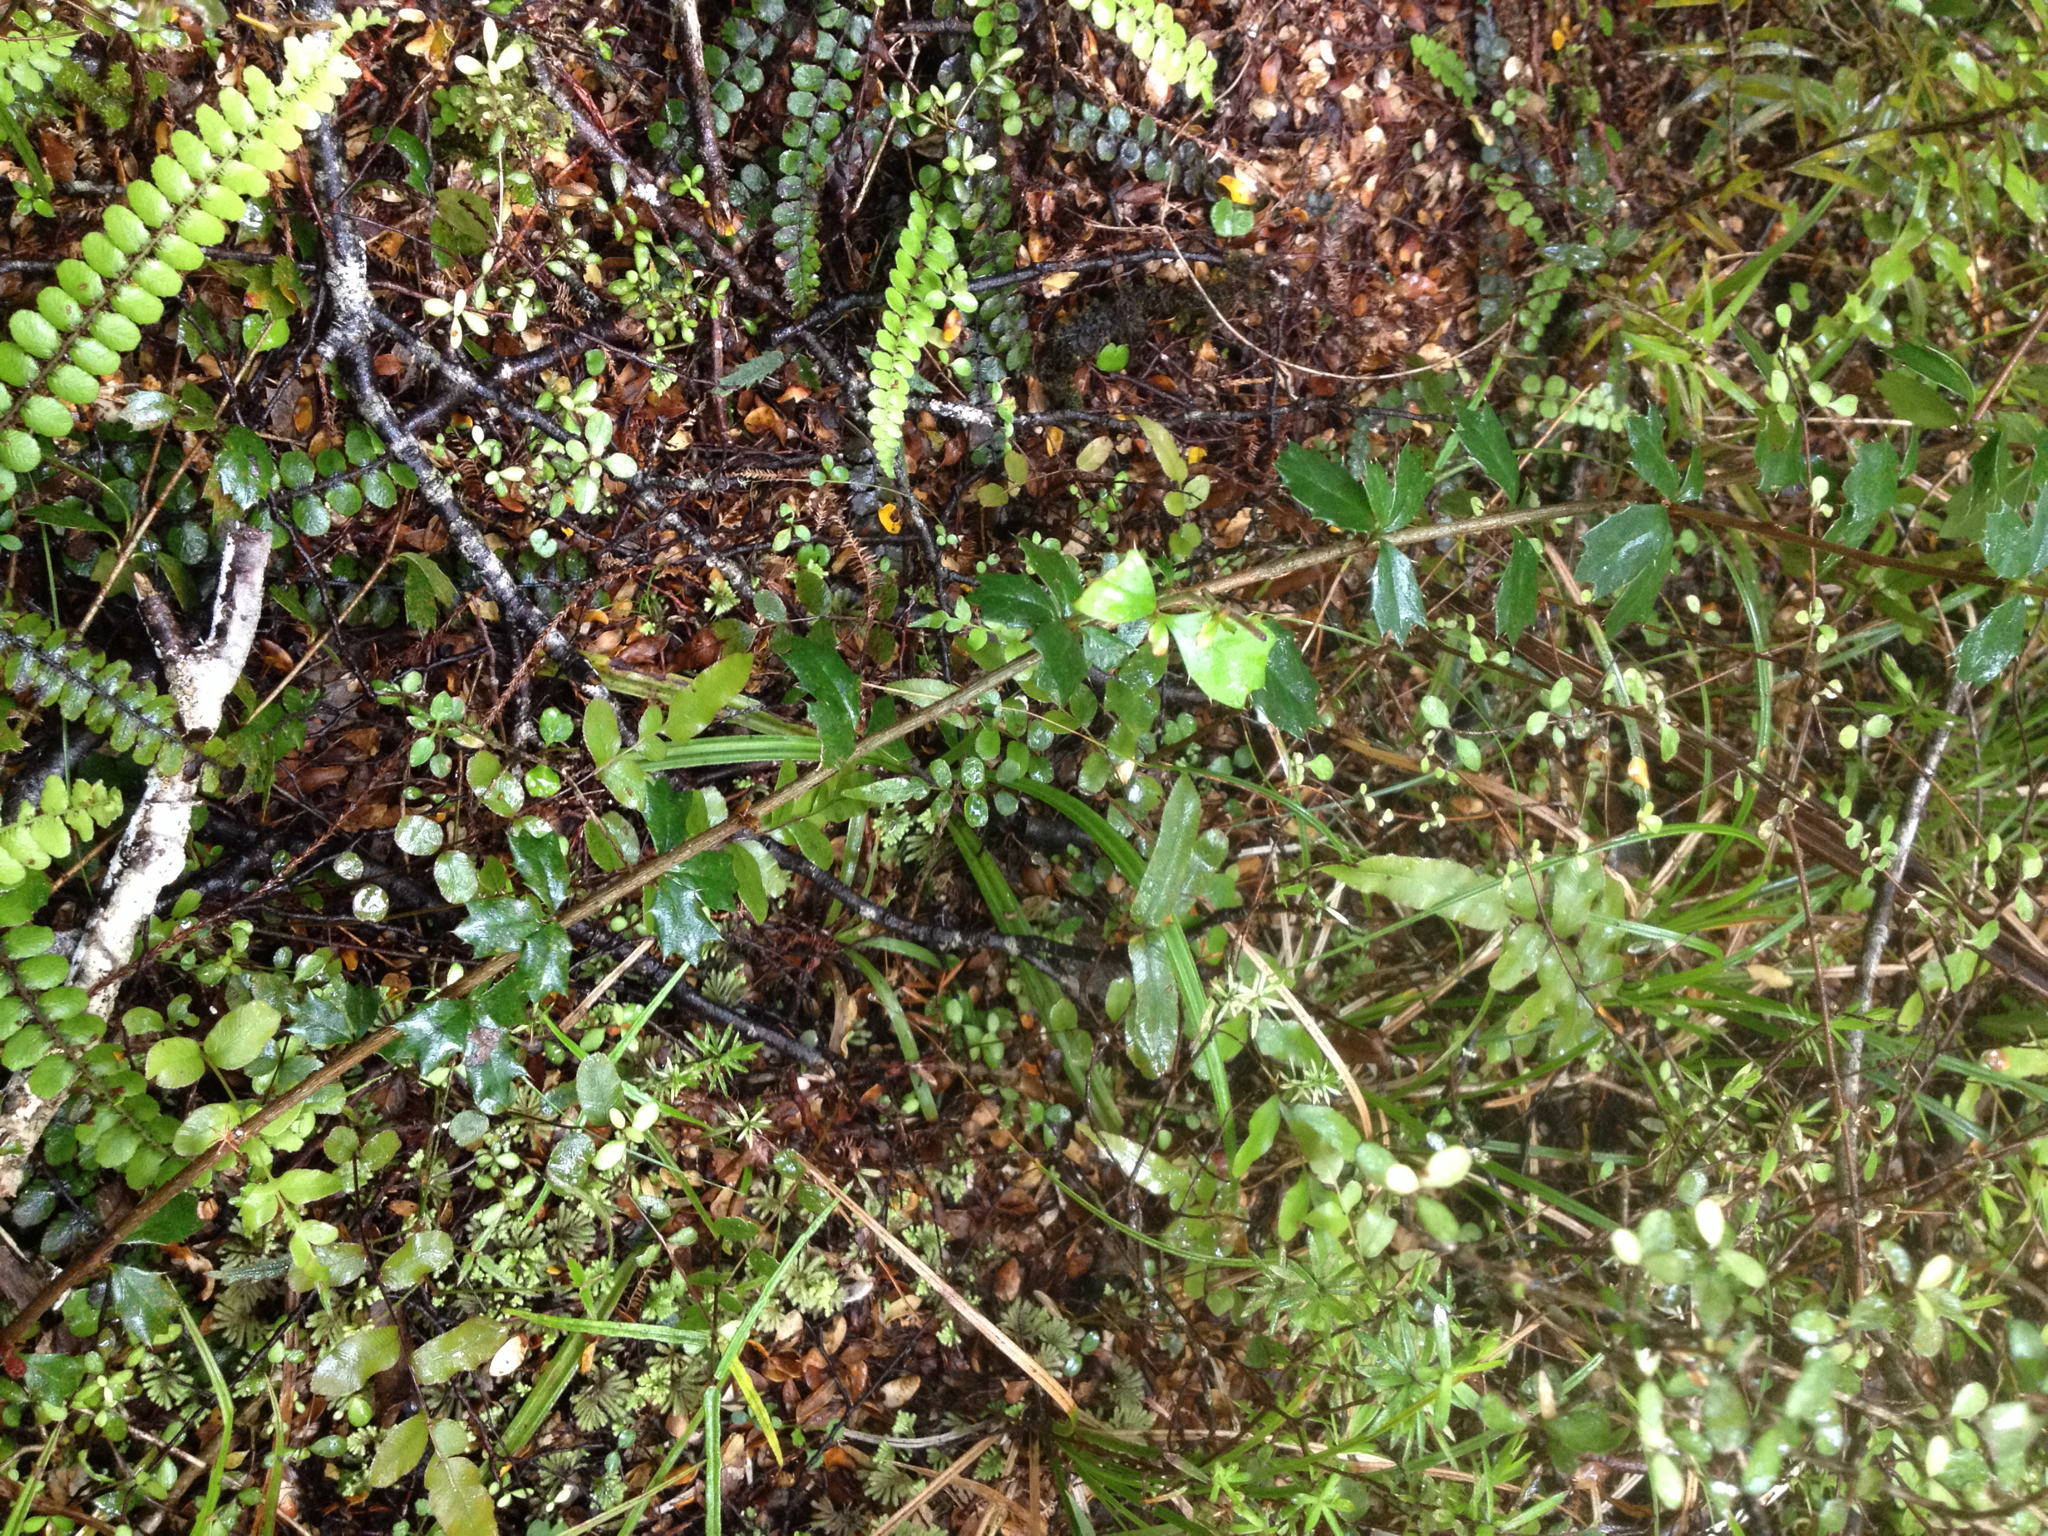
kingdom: Plantae
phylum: Tracheophyta
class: Magnoliopsida
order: Ranunculales
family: Berberidaceae
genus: Berberis
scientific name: Berberis darwinii
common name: Darwin's barberry
